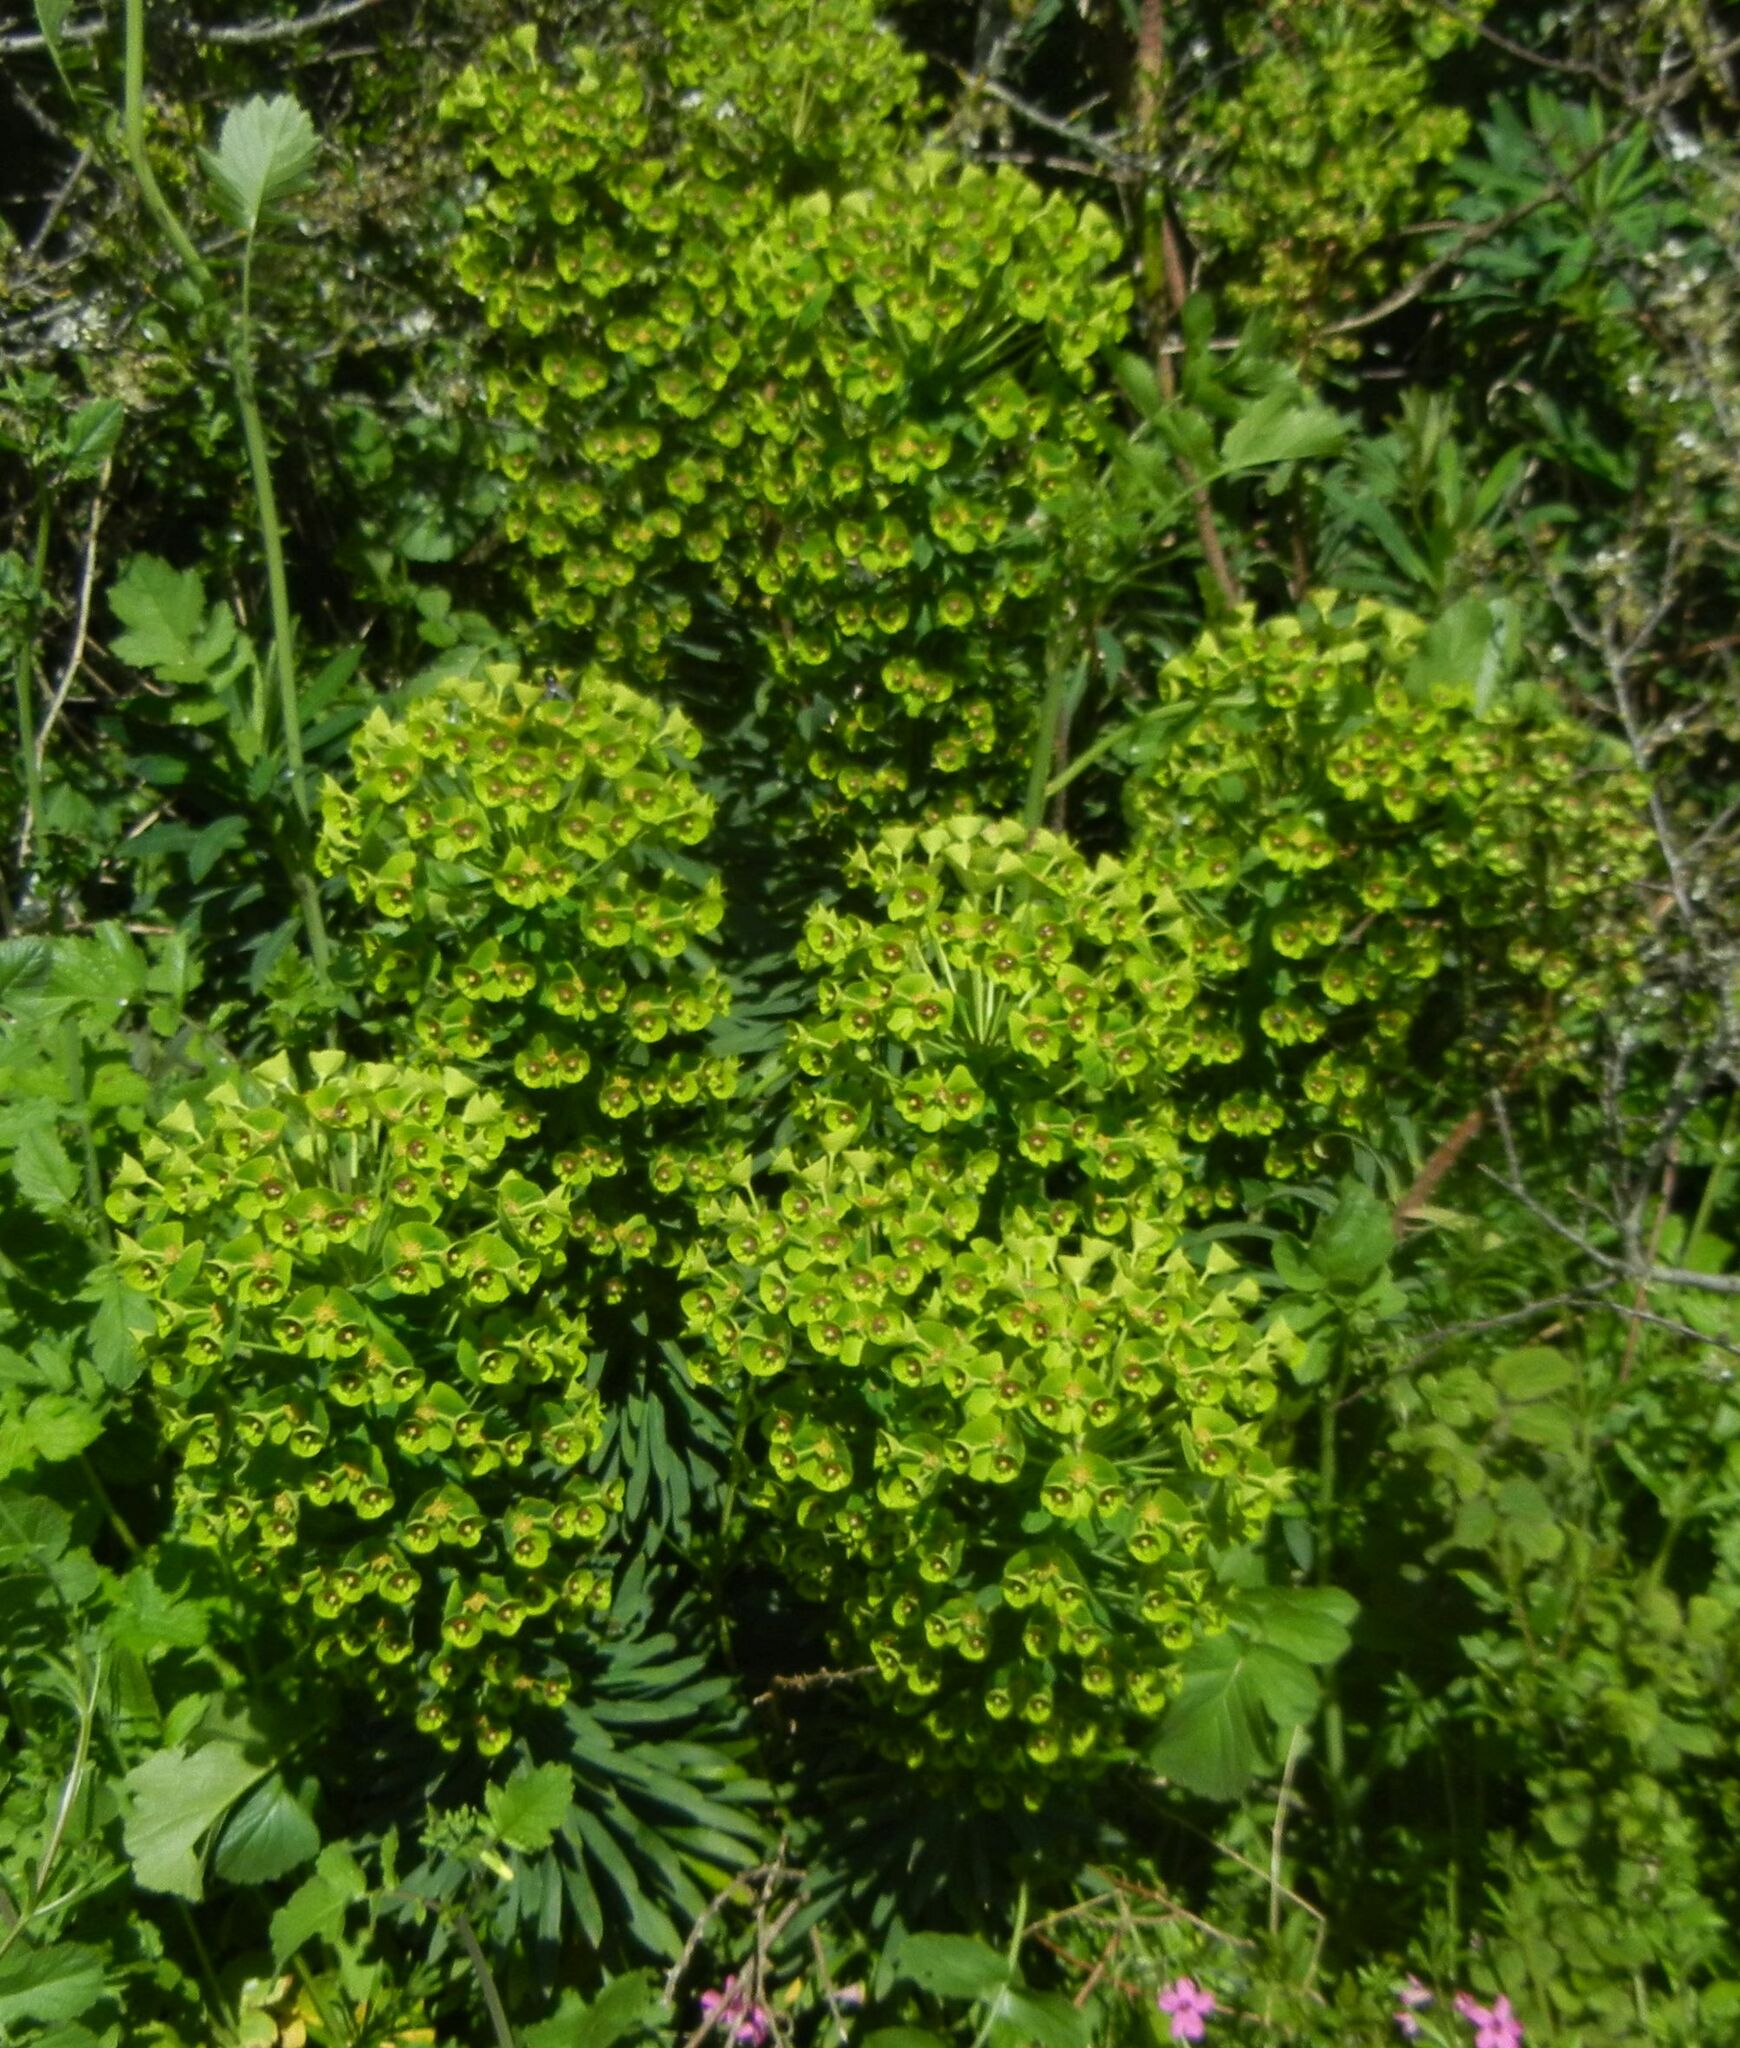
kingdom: Plantae
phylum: Tracheophyta
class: Magnoliopsida
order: Malpighiales
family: Euphorbiaceae
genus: Euphorbia
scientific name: Euphorbia characias
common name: Mediterranean spurge
